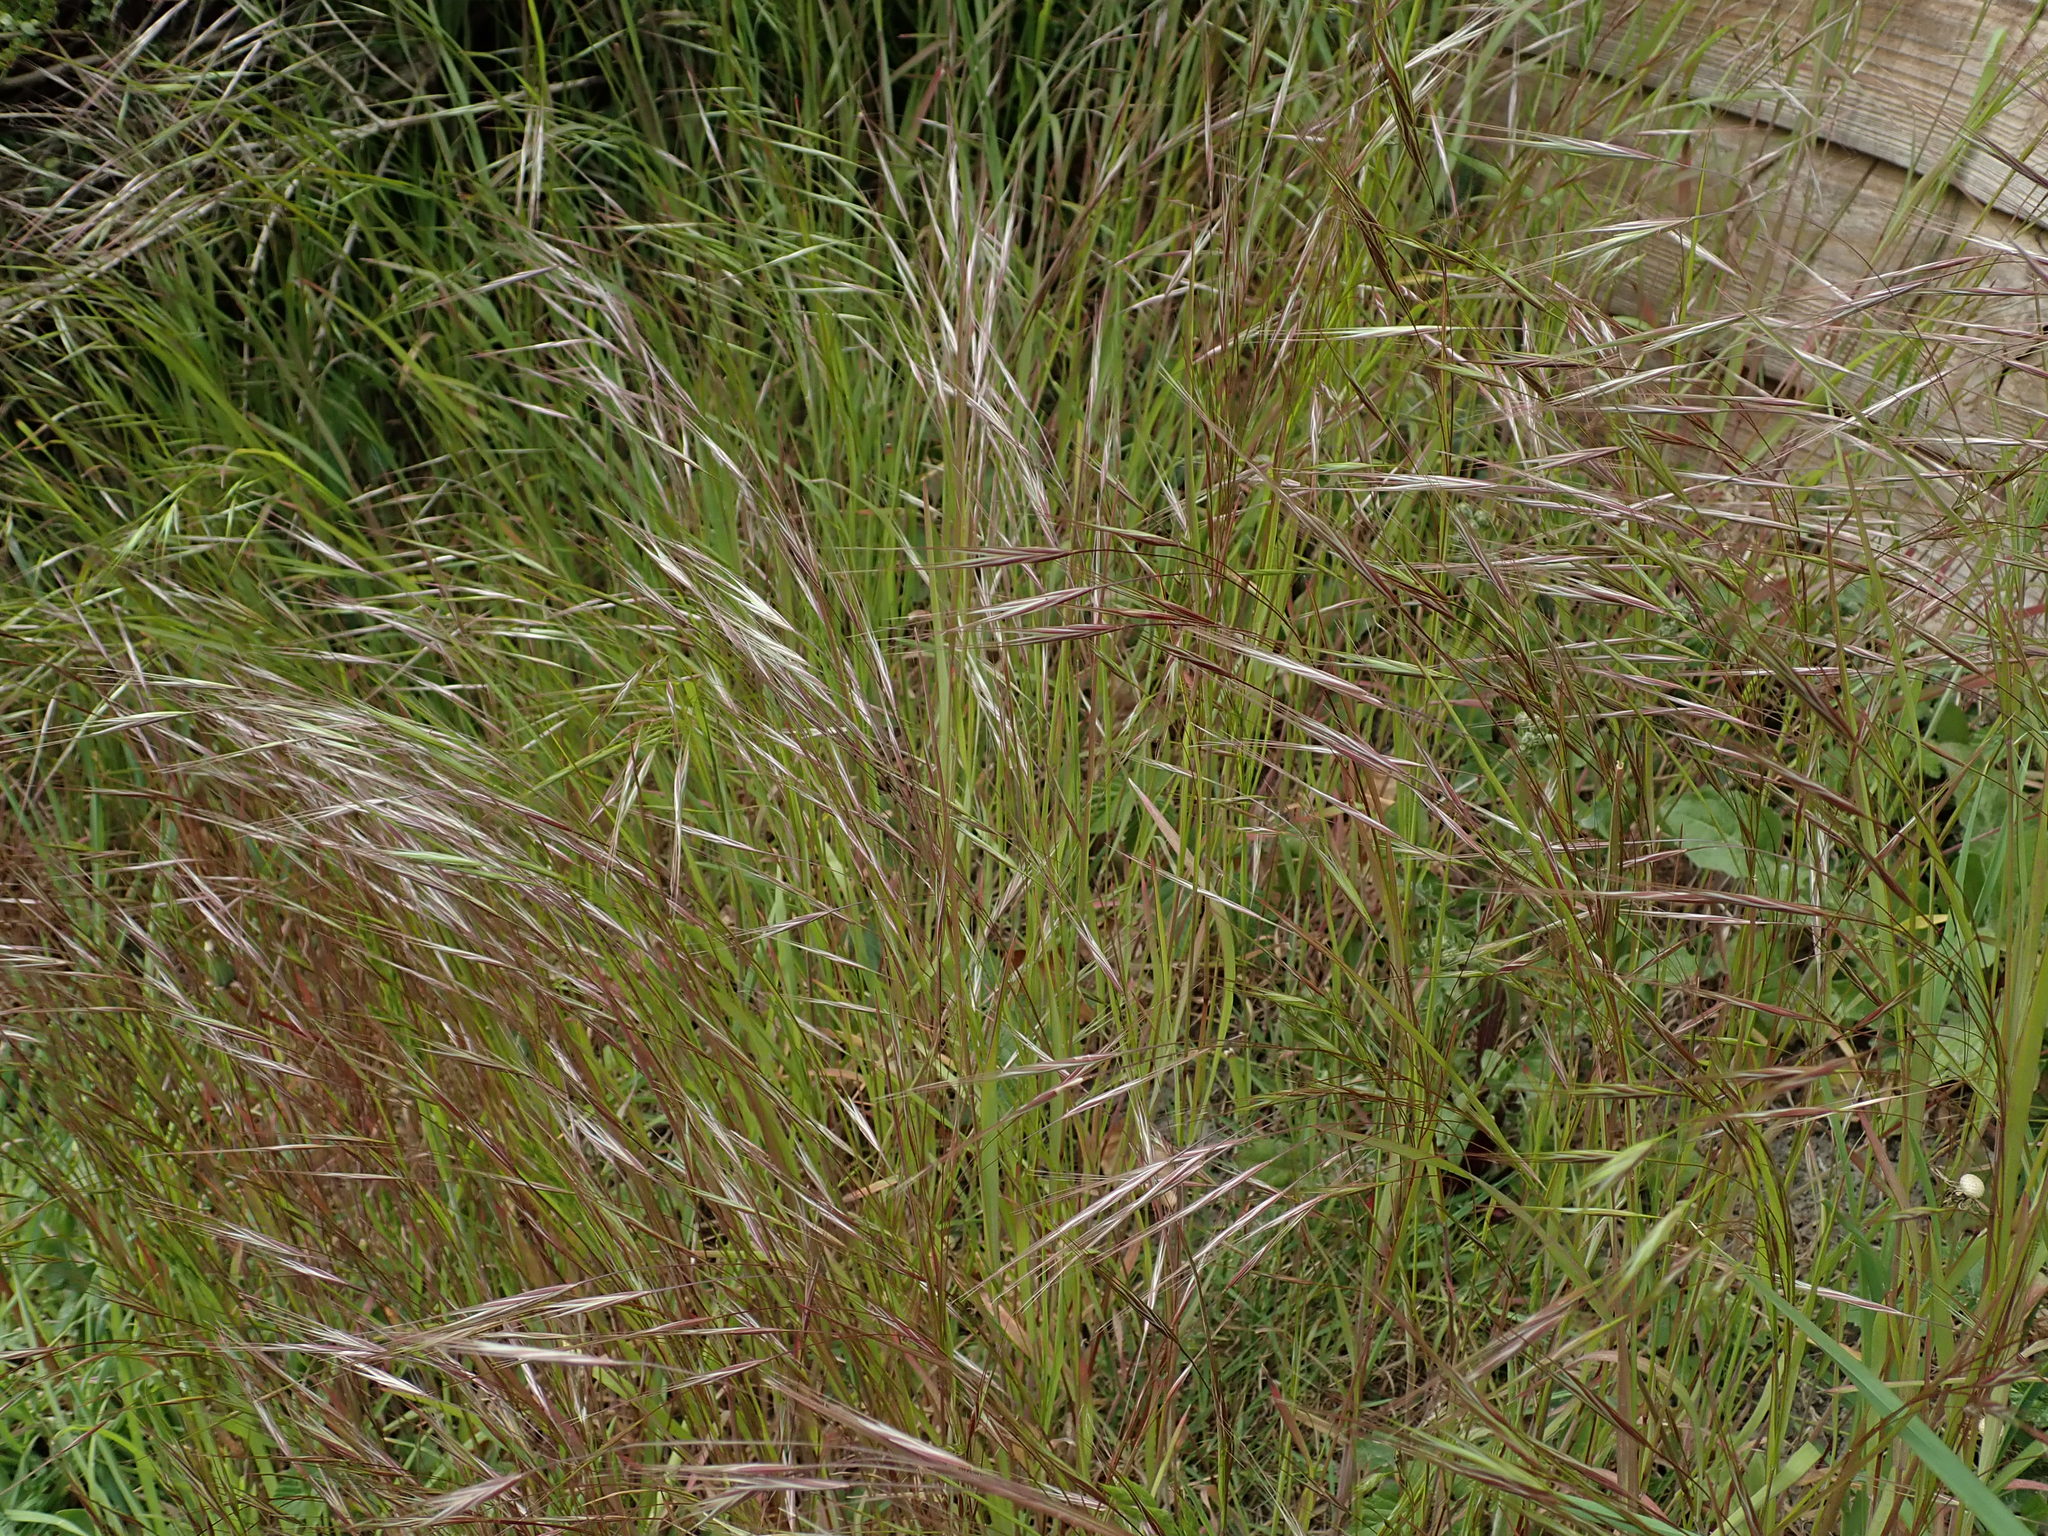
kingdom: Plantae
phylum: Tracheophyta
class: Liliopsida
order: Poales
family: Poaceae
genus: Bromus
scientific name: Bromus sterilis
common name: Poverty brome
